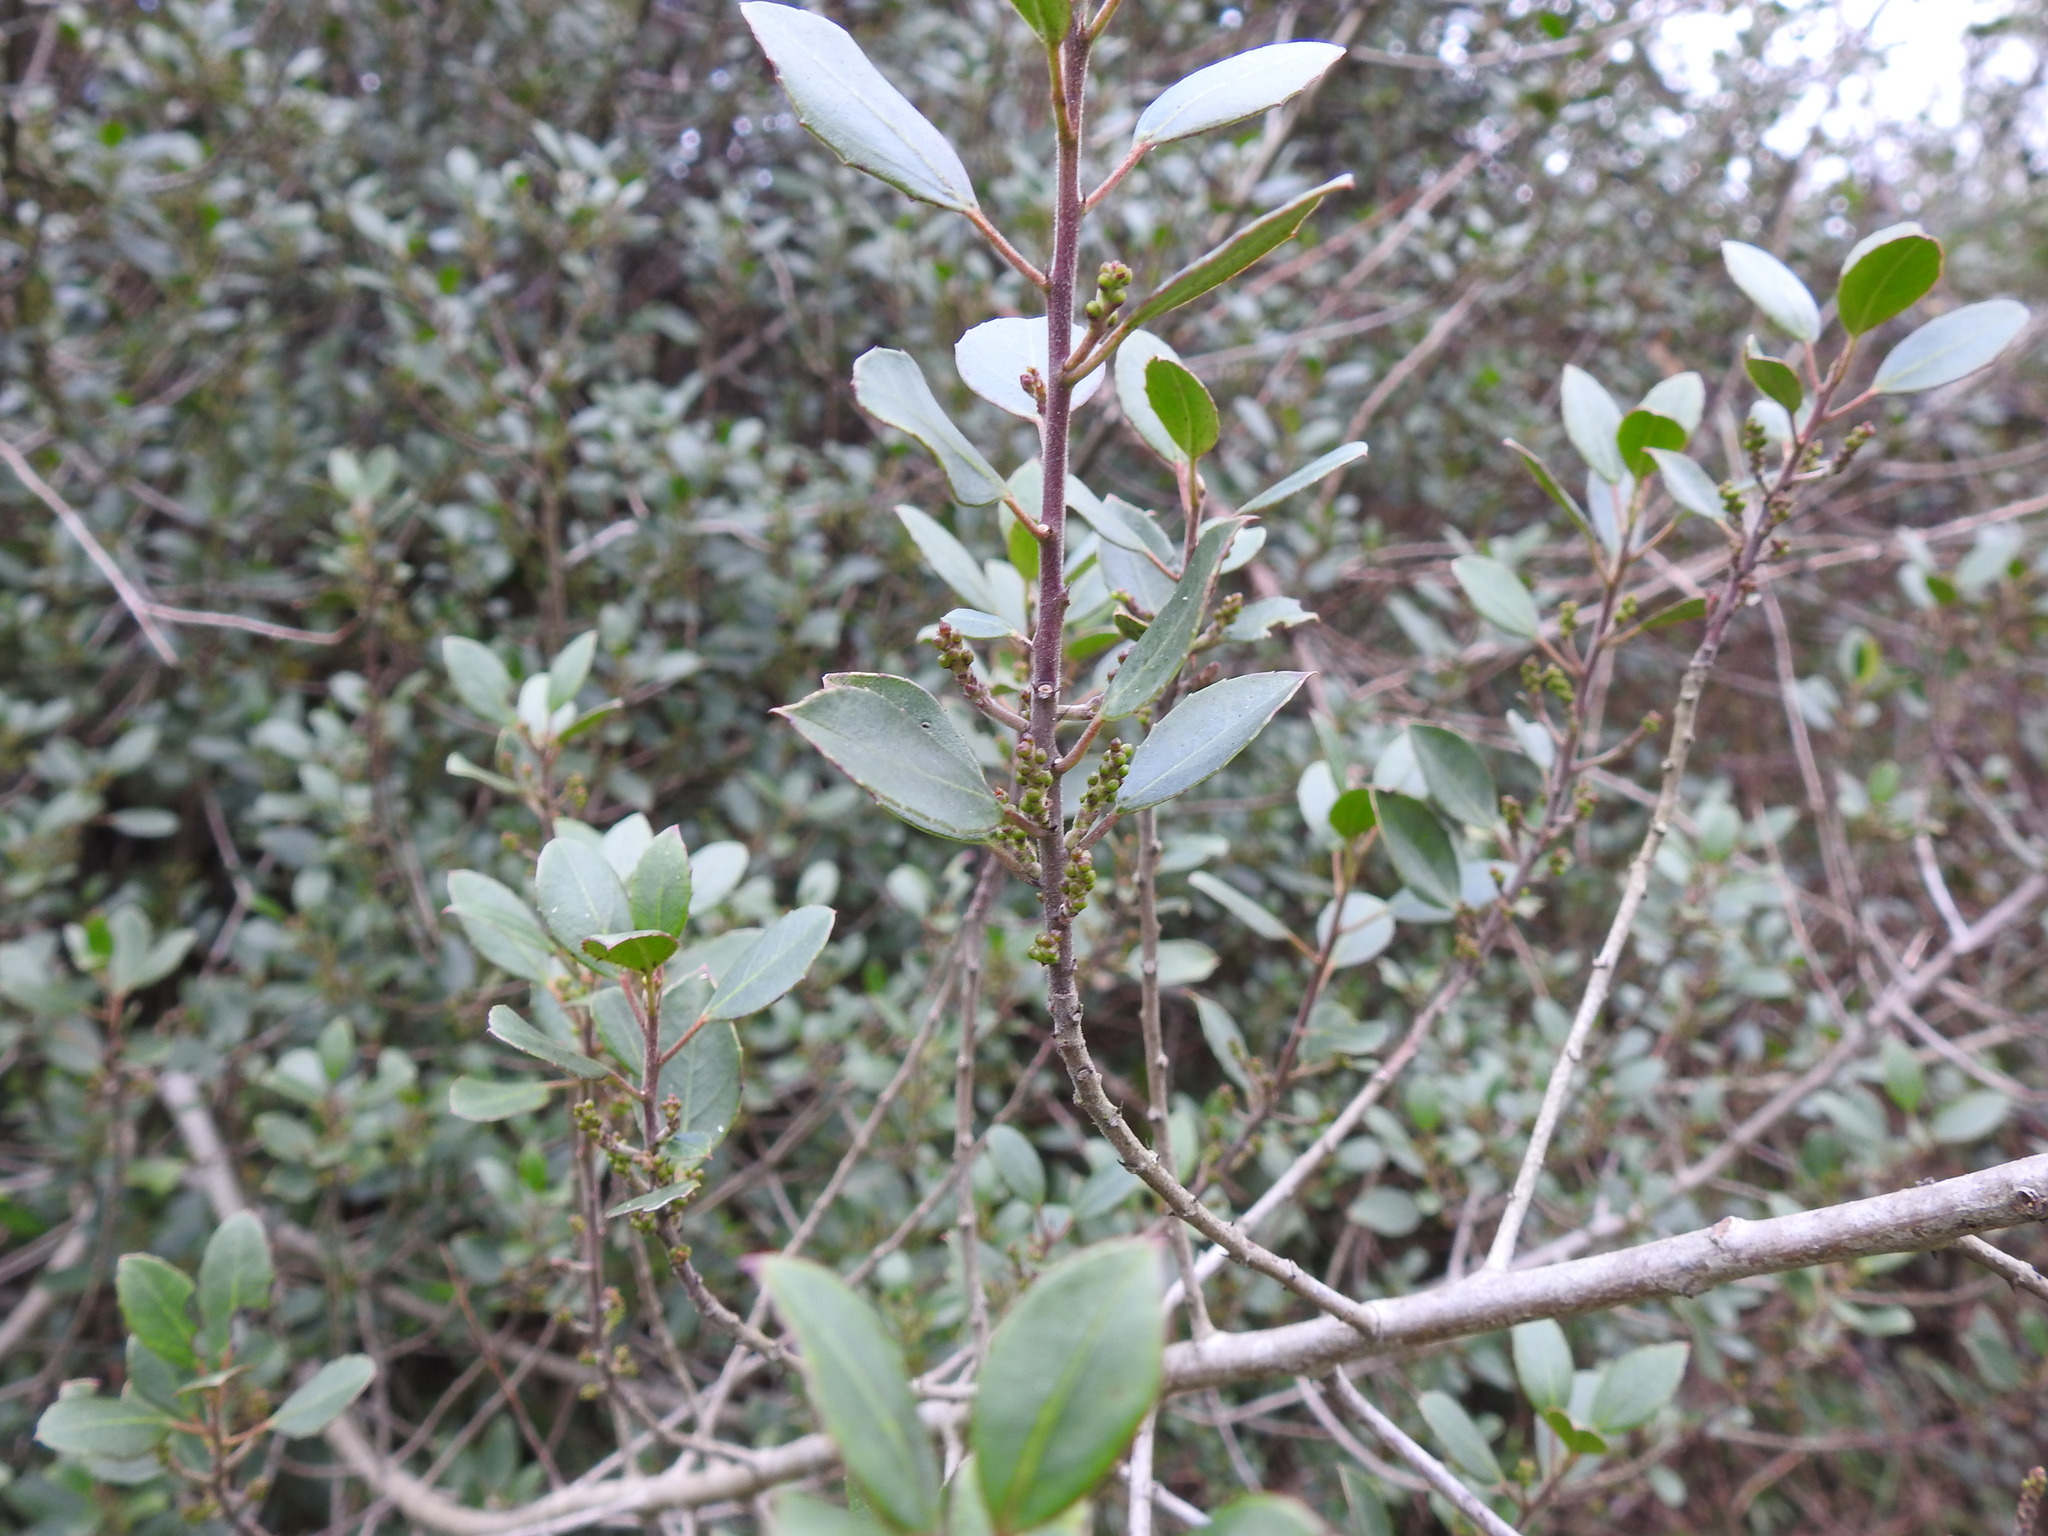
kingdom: Plantae
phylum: Tracheophyta
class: Magnoliopsida
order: Rosales
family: Rhamnaceae
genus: Rhamnus
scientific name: Rhamnus alaternus
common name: Mediterranean buckthorn
